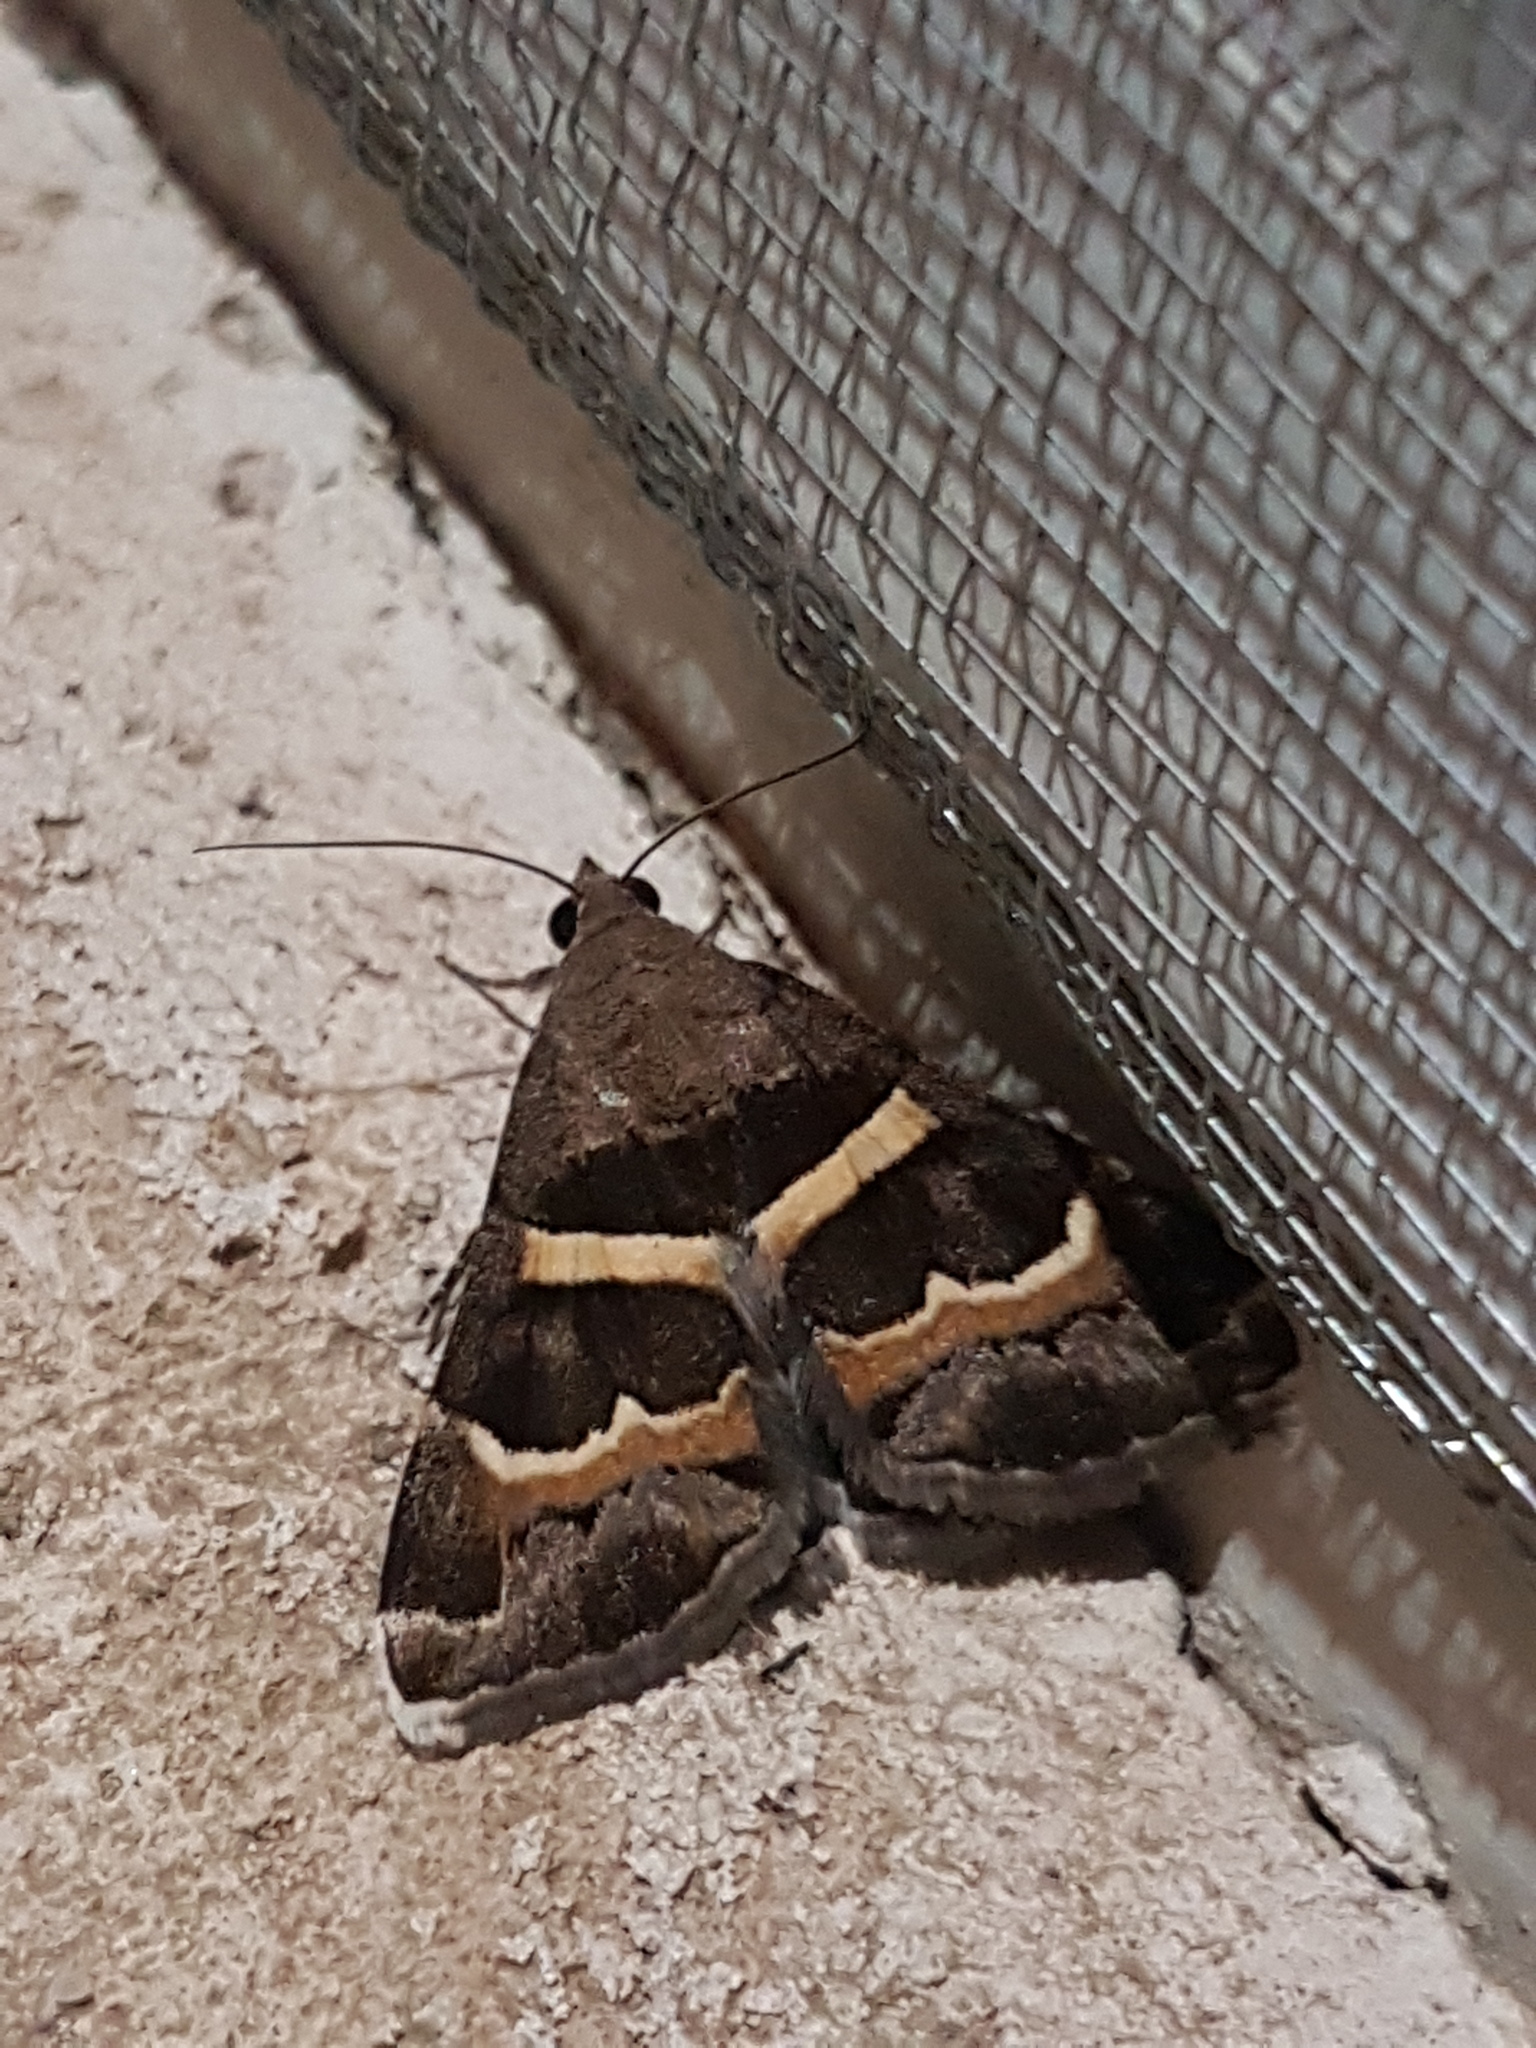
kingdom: Animalia
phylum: Arthropoda
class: Insecta
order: Lepidoptera
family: Erebidae
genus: Grammodes
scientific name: Grammodes stolida
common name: Geometrician
